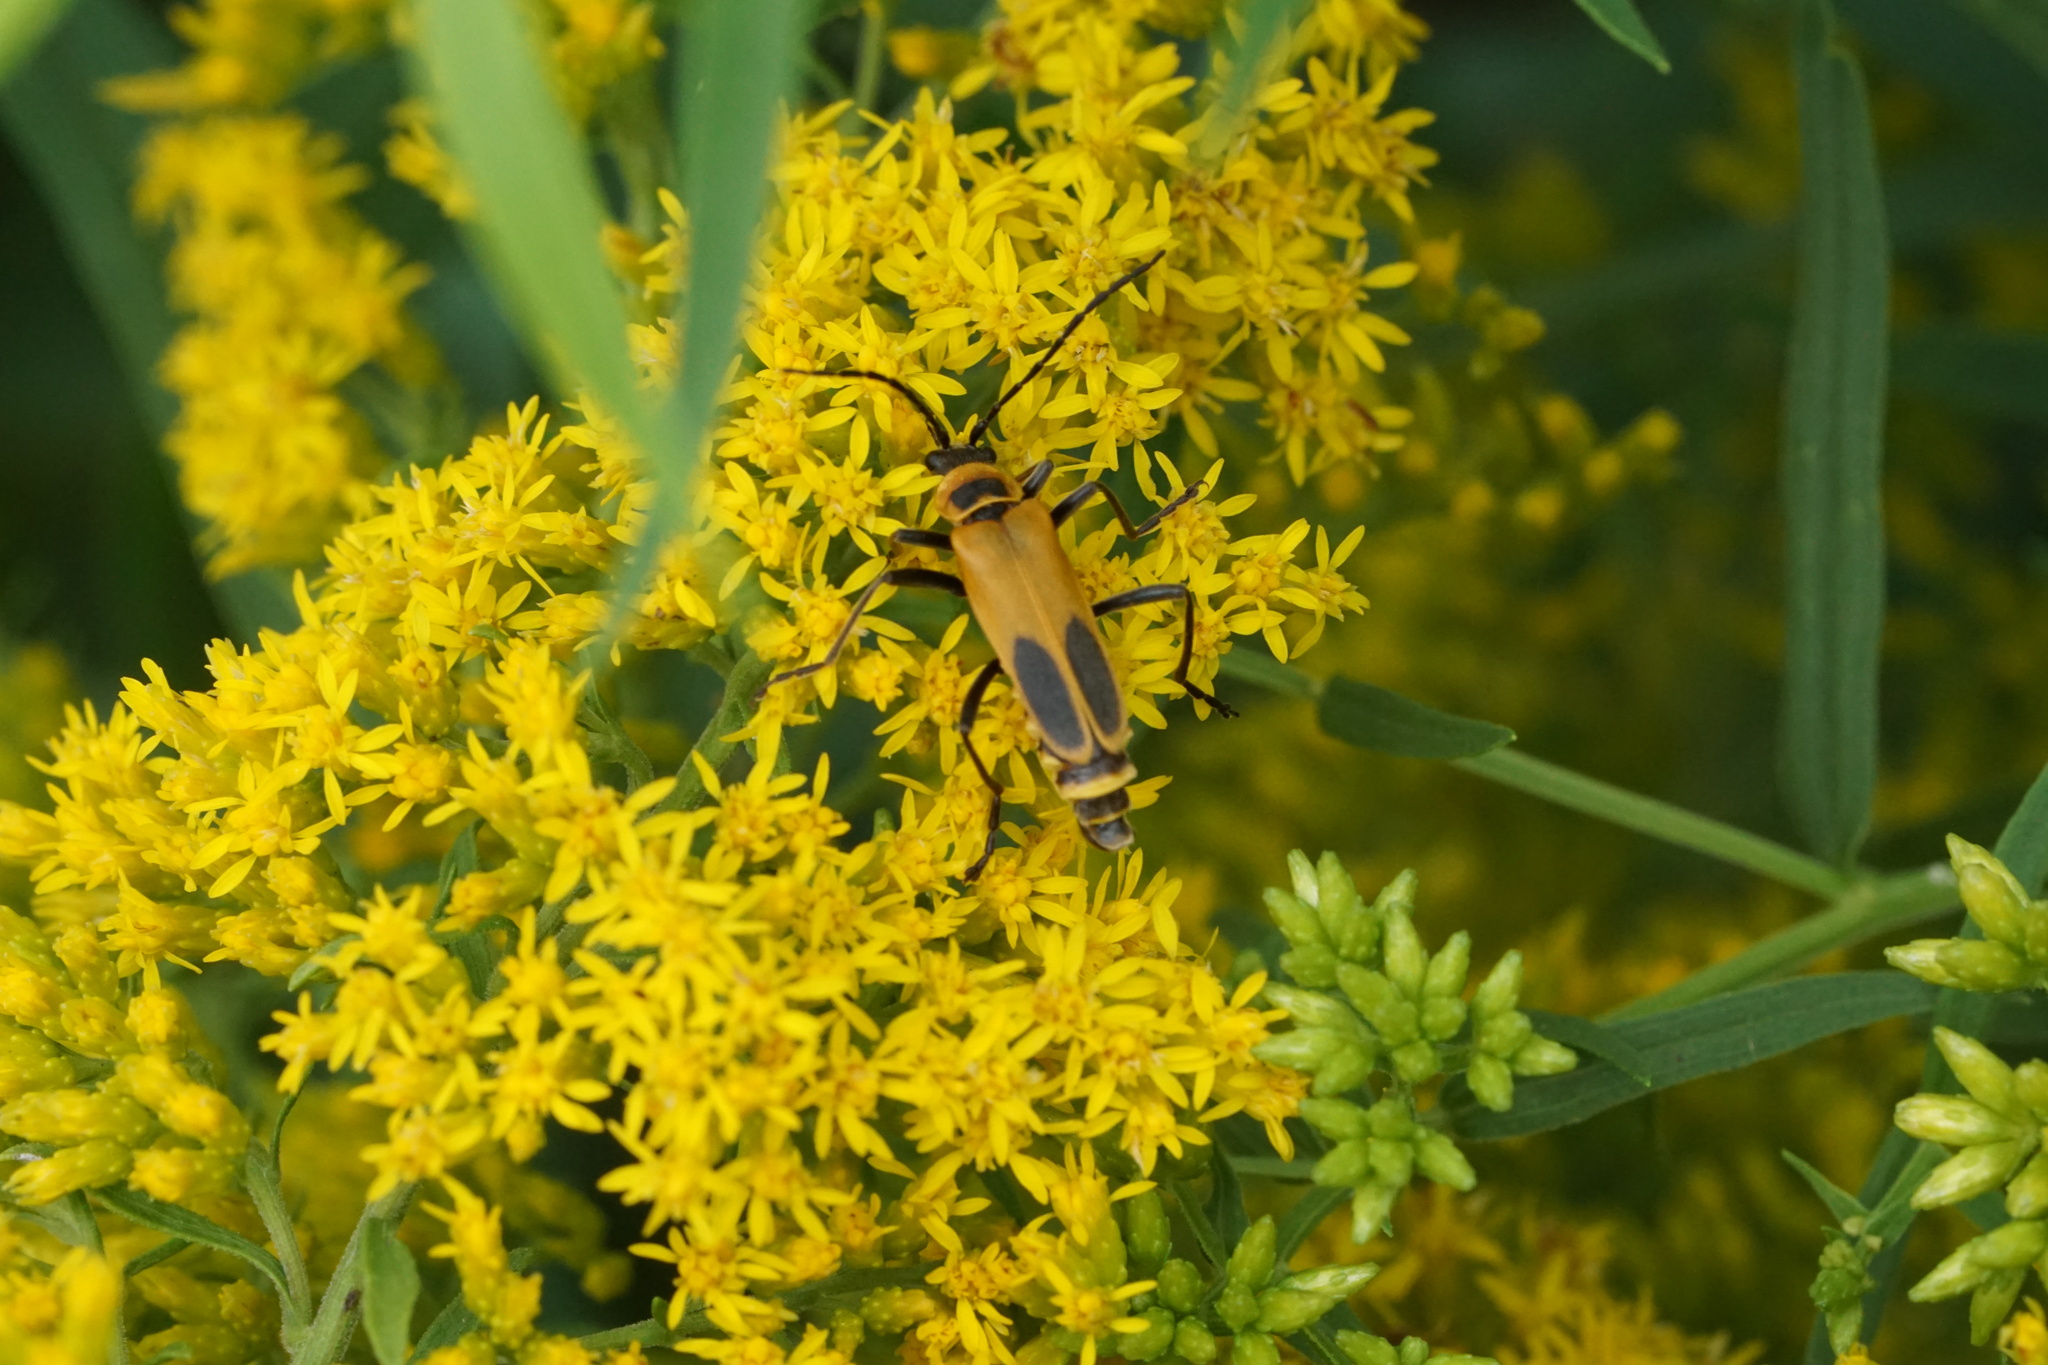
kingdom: Animalia
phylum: Arthropoda
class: Insecta
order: Coleoptera
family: Cantharidae
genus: Chauliognathus
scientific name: Chauliognathus pensylvanicus
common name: Goldenrod soldier beetle
